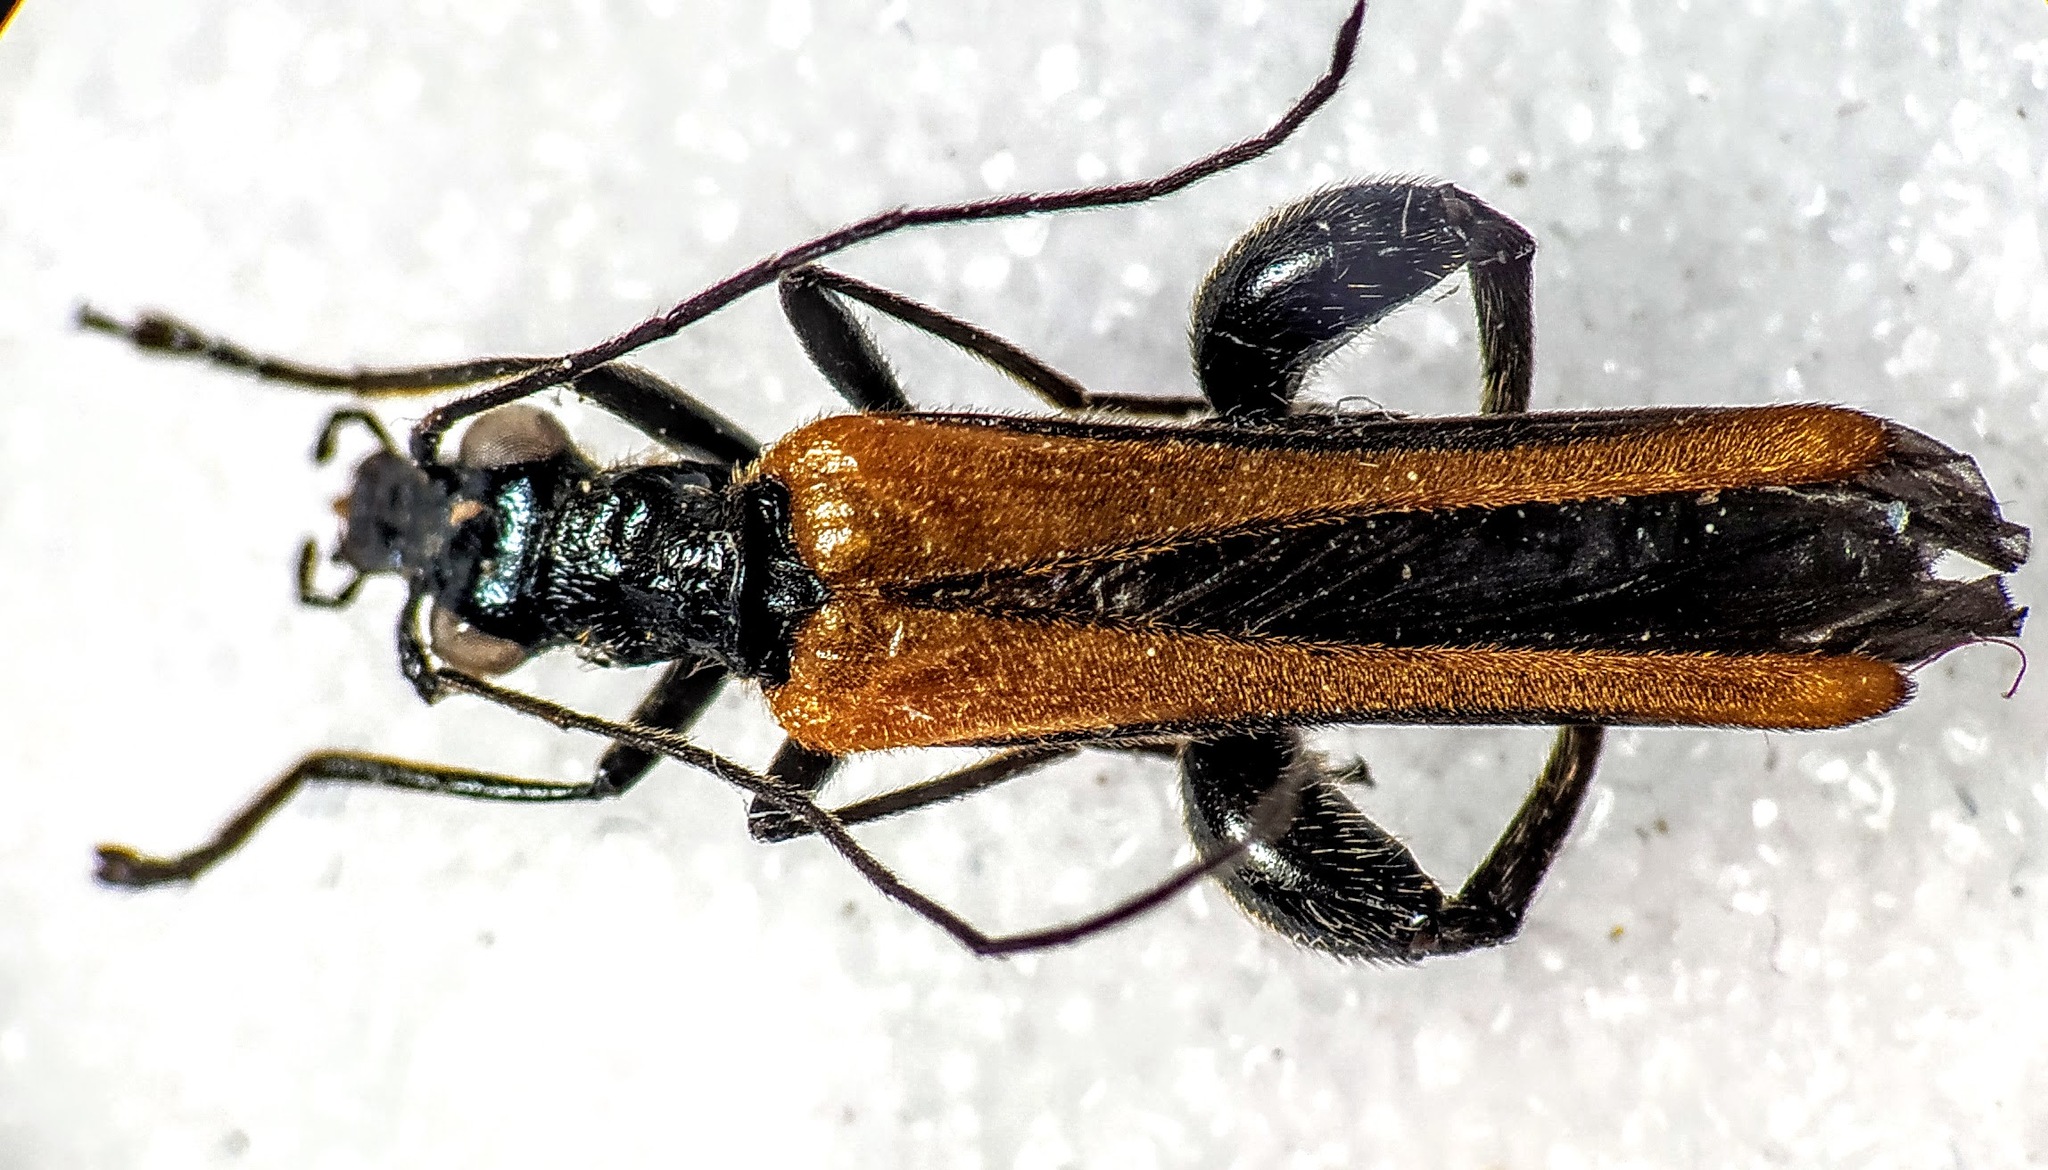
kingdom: Animalia
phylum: Arthropoda
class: Insecta
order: Coleoptera
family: Oedemeridae
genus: Oedemera
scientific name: Oedemera femorata
